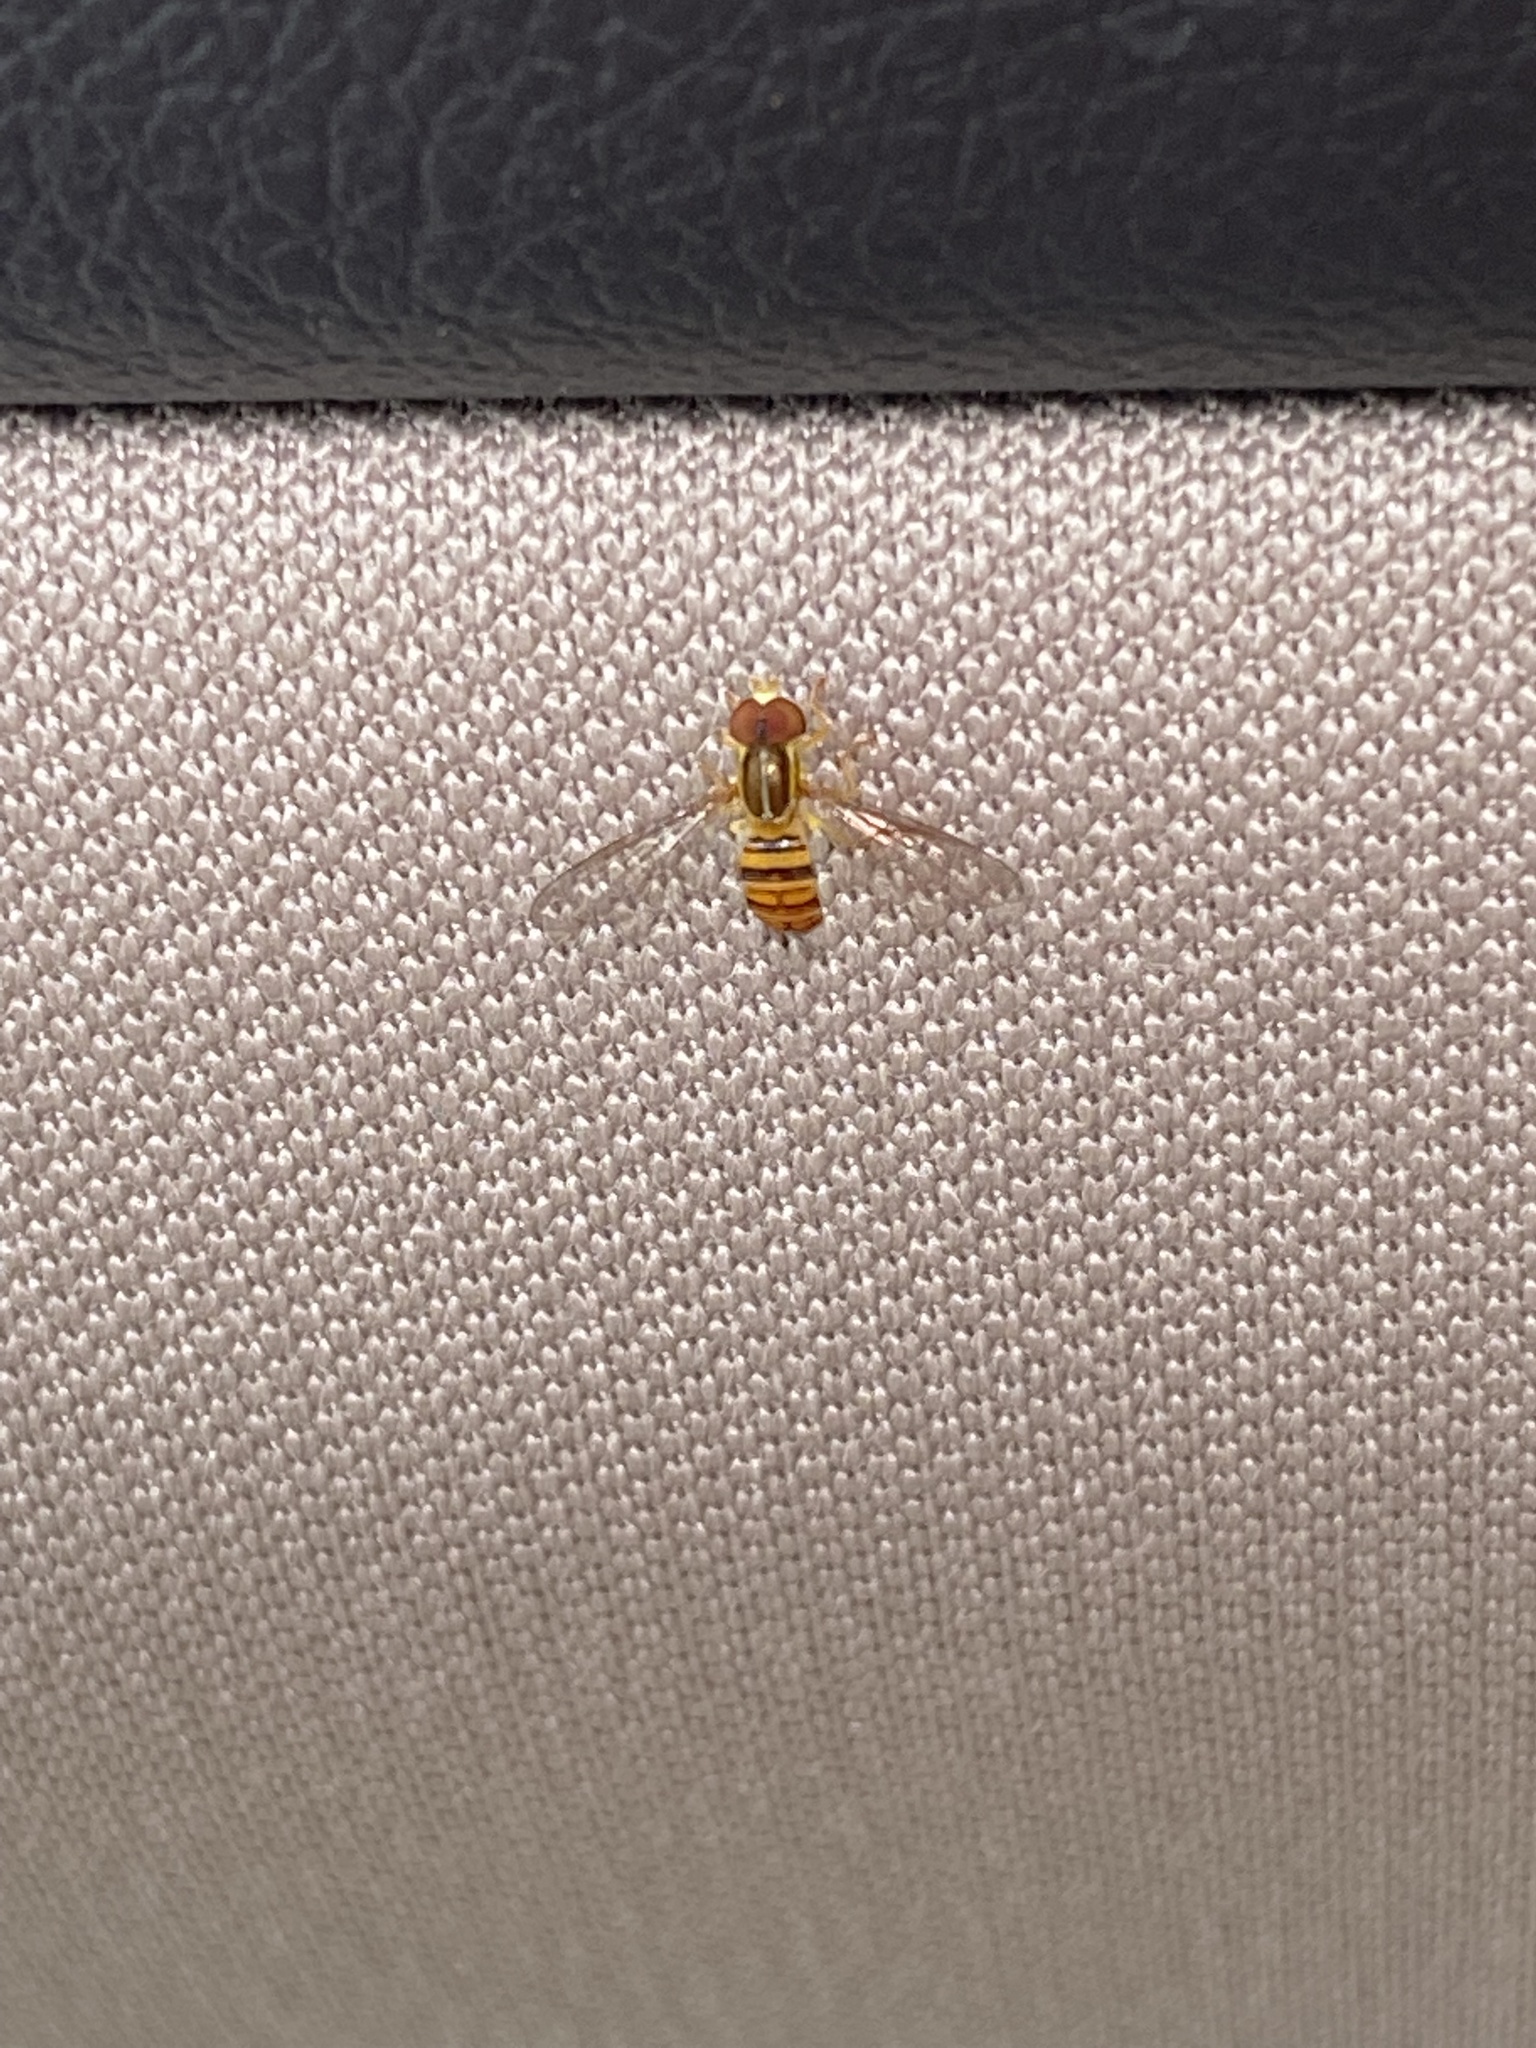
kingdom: Animalia
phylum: Arthropoda
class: Insecta
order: Diptera
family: Syrphidae
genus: Toxomerus
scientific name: Toxomerus politus
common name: Maize calligrapher
